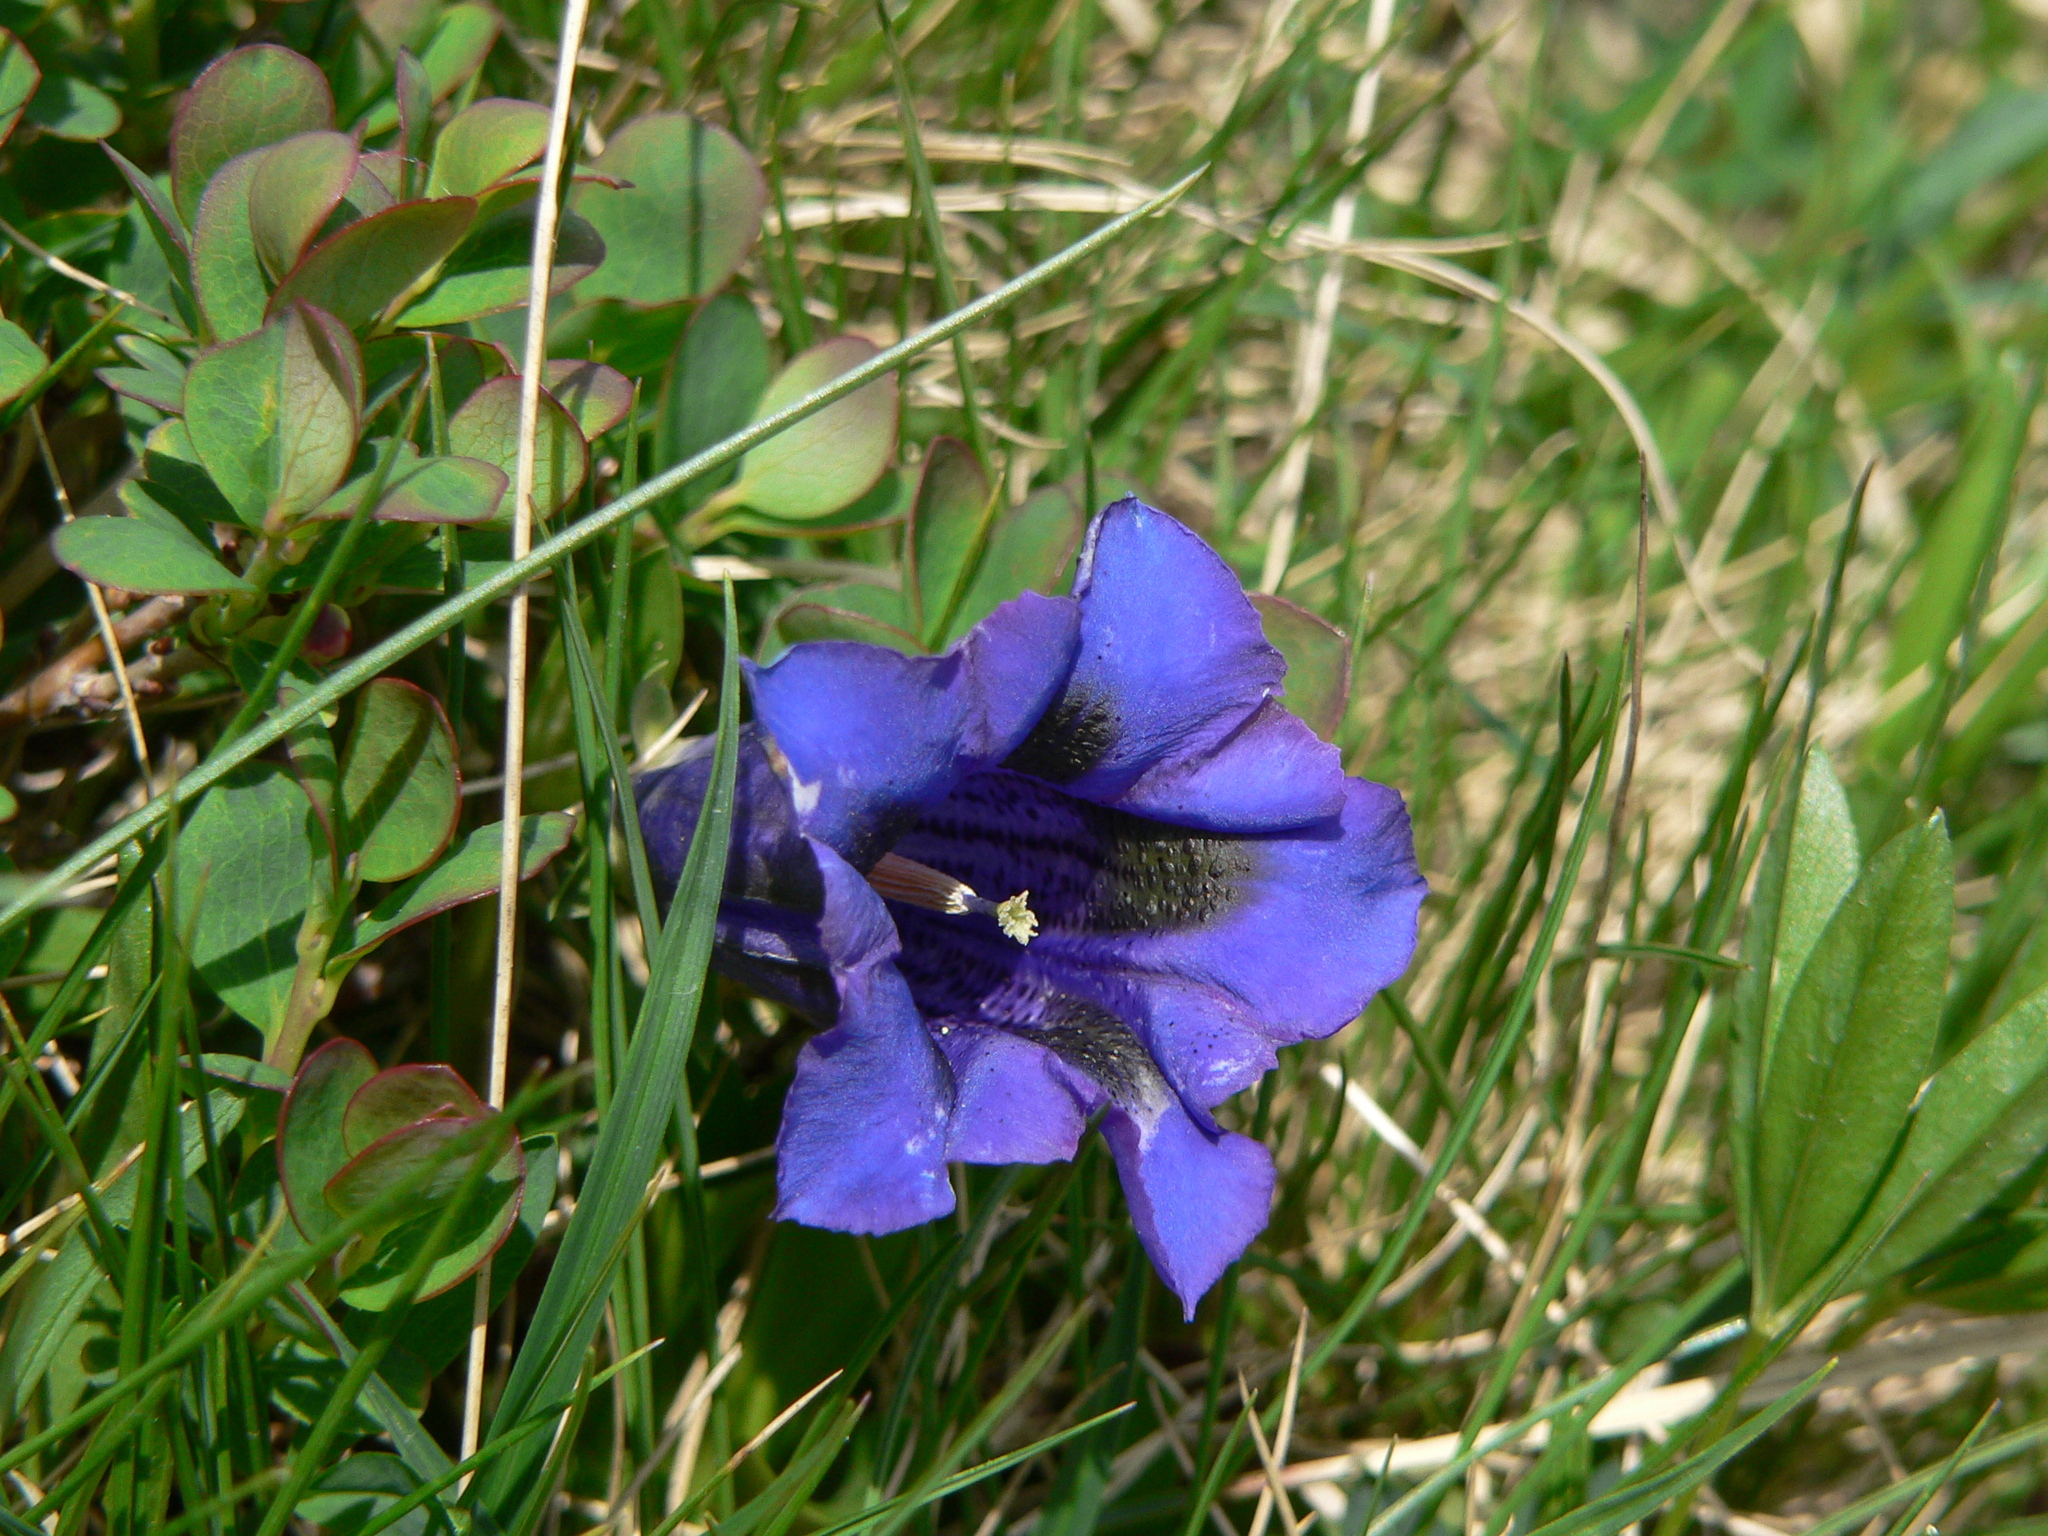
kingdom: Plantae
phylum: Tracheophyta
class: Magnoliopsida
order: Gentianales
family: Gentianaceae
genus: Gentiana
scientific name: Gentiana acaulis
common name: Trumpet gentian
